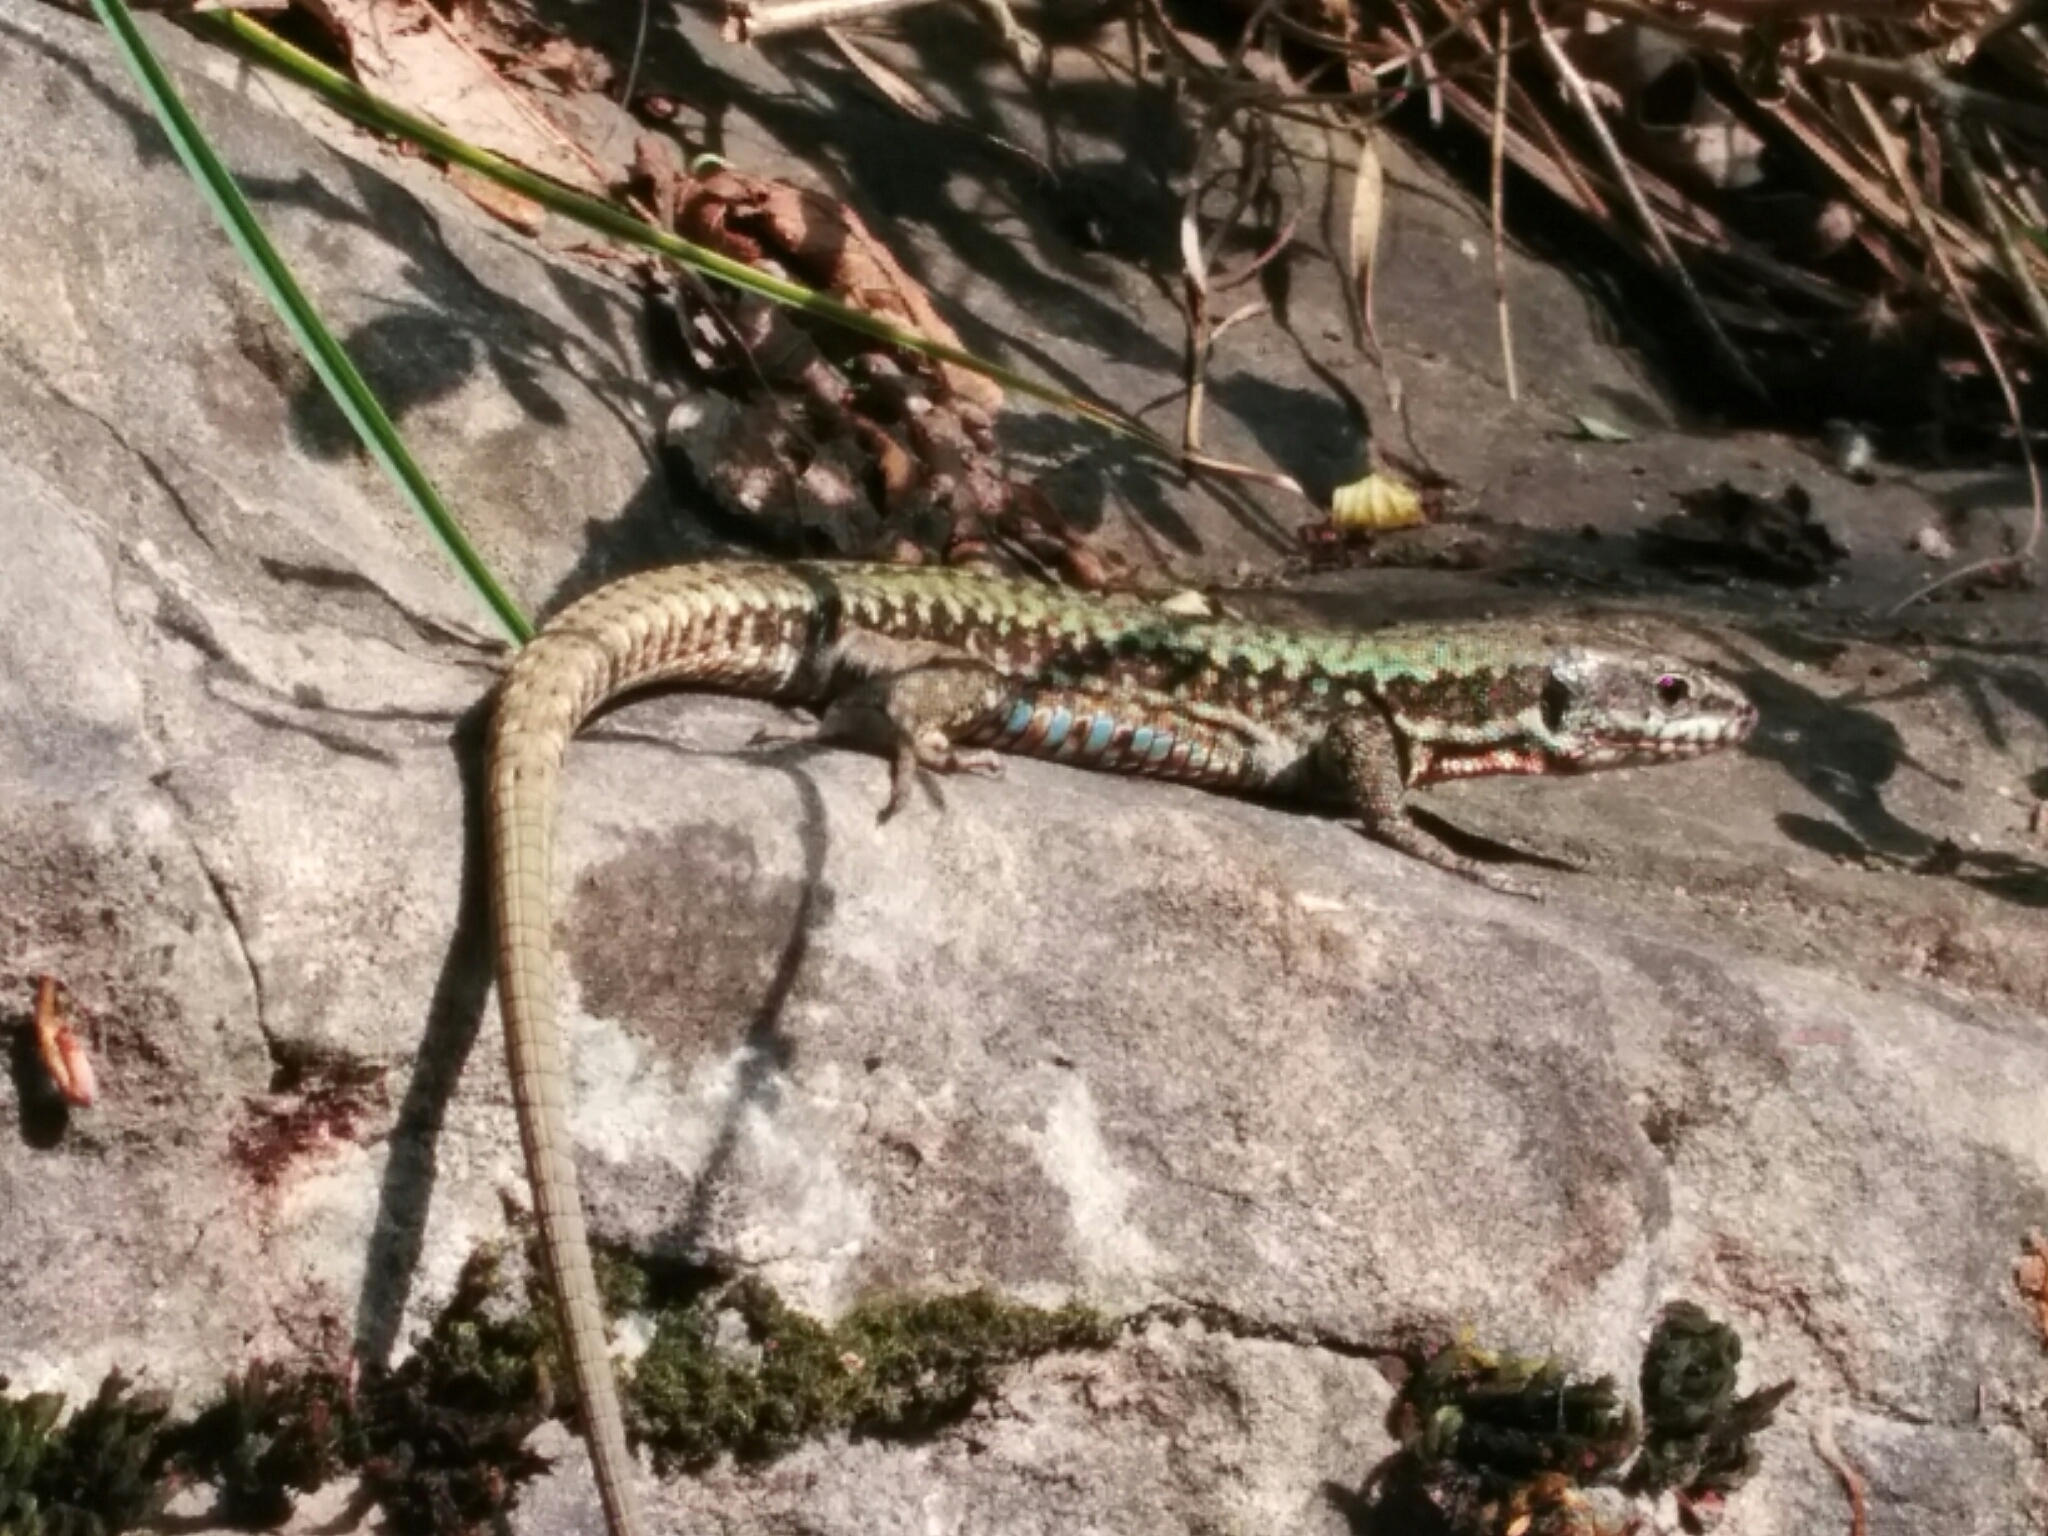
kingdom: Animalia
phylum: Chordata
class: Squamata
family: Lacertidae
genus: Podarcis
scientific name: Podarcis muralis
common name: Common wall lizard
